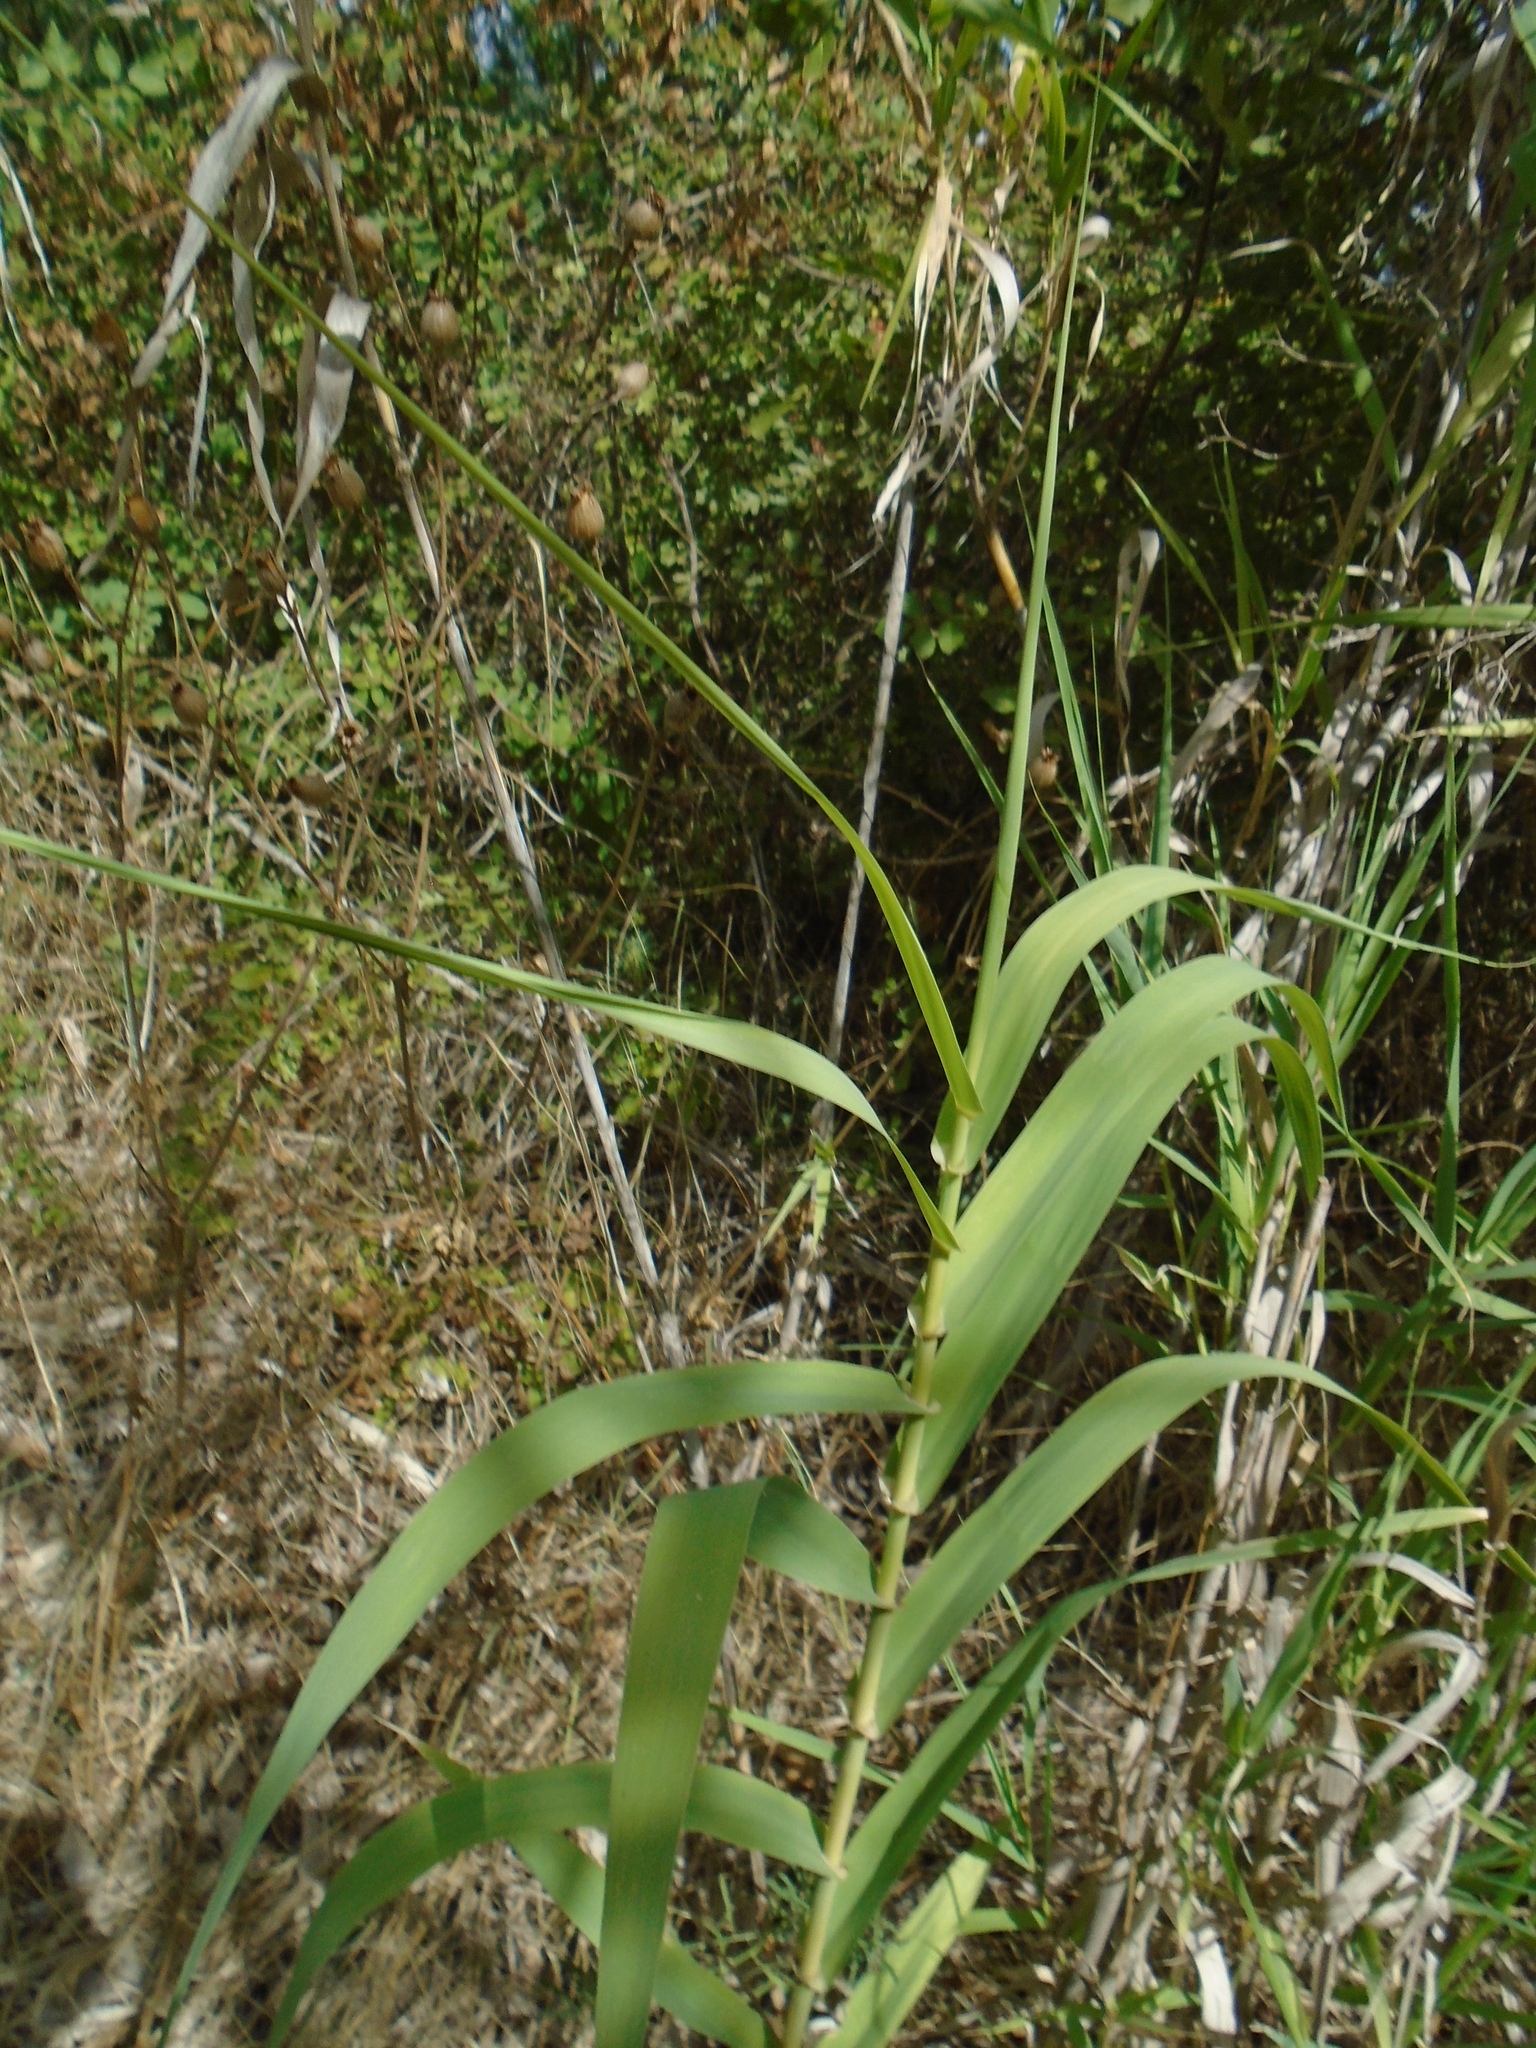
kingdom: Plantae
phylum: Tracheophyta
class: Liliopsida
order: Poales
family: Poaceae
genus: Arundo
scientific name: Arundo donax
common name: Giant reed
